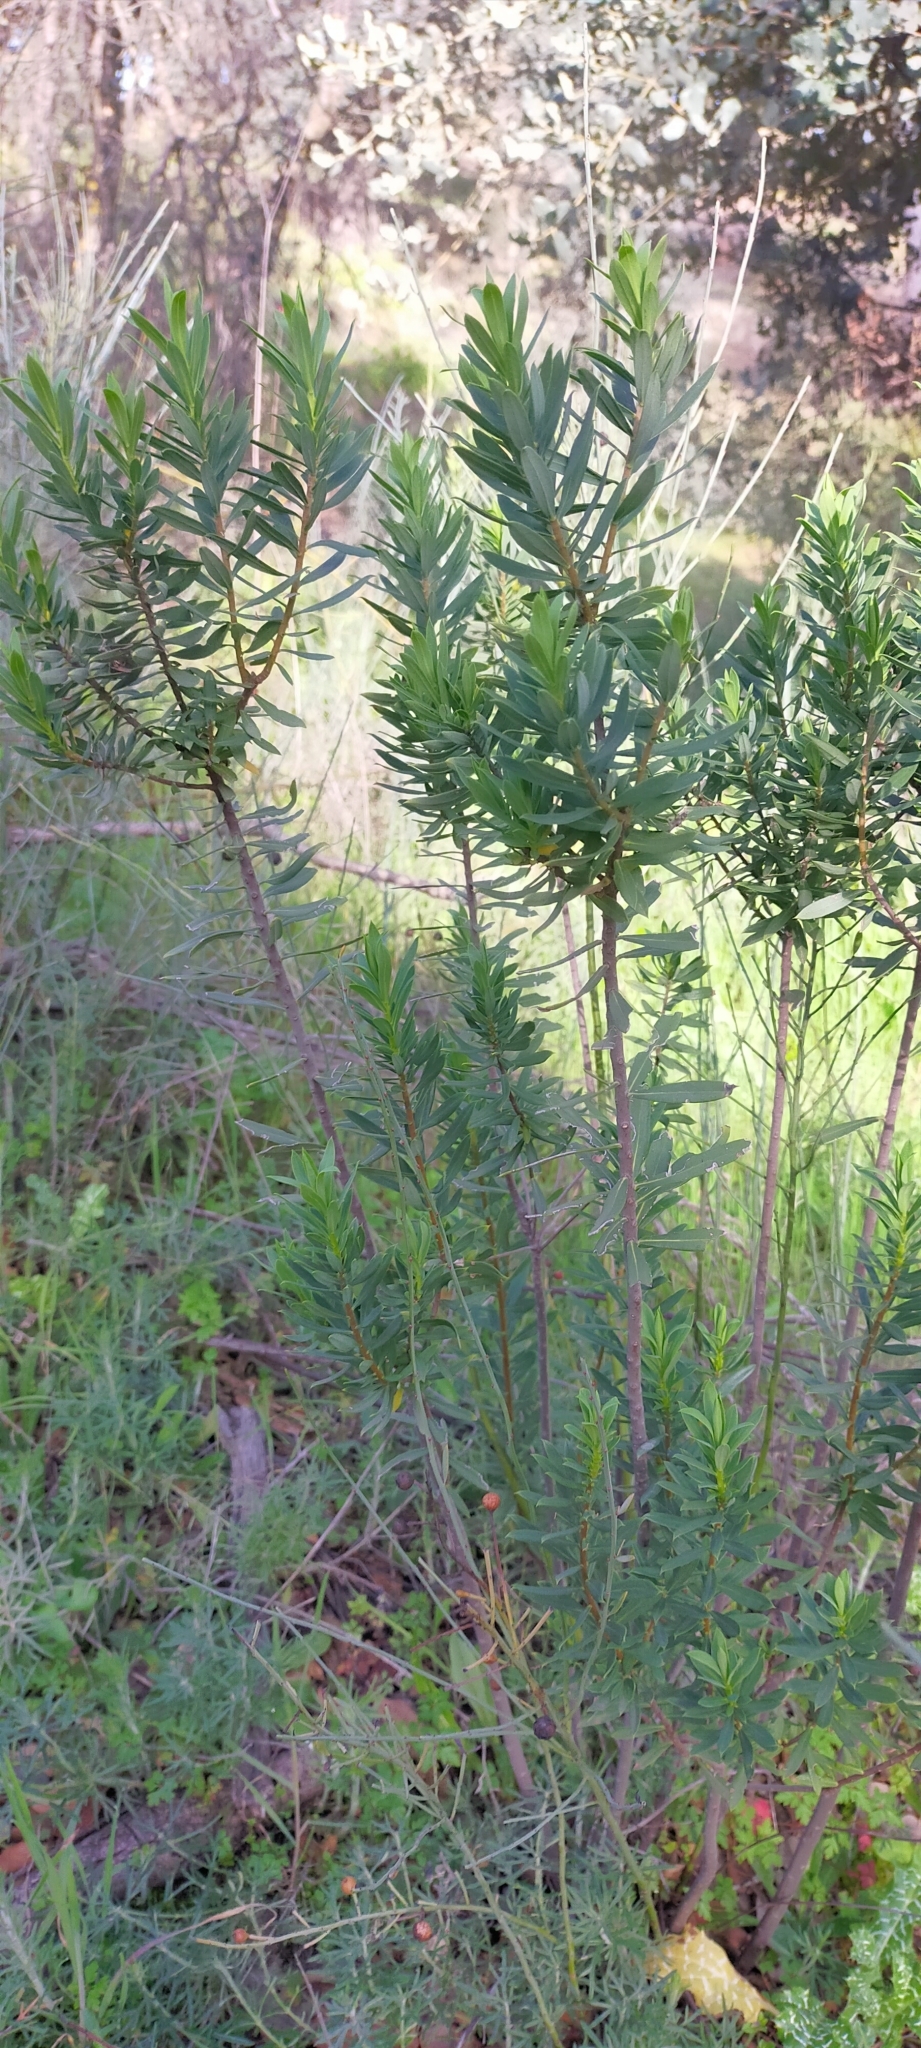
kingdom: Plantae
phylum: Tracheophyta
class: Magnoliopsida
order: Malvales
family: Thymelaeaceae
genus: Daphne
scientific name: Daphne gnidium
